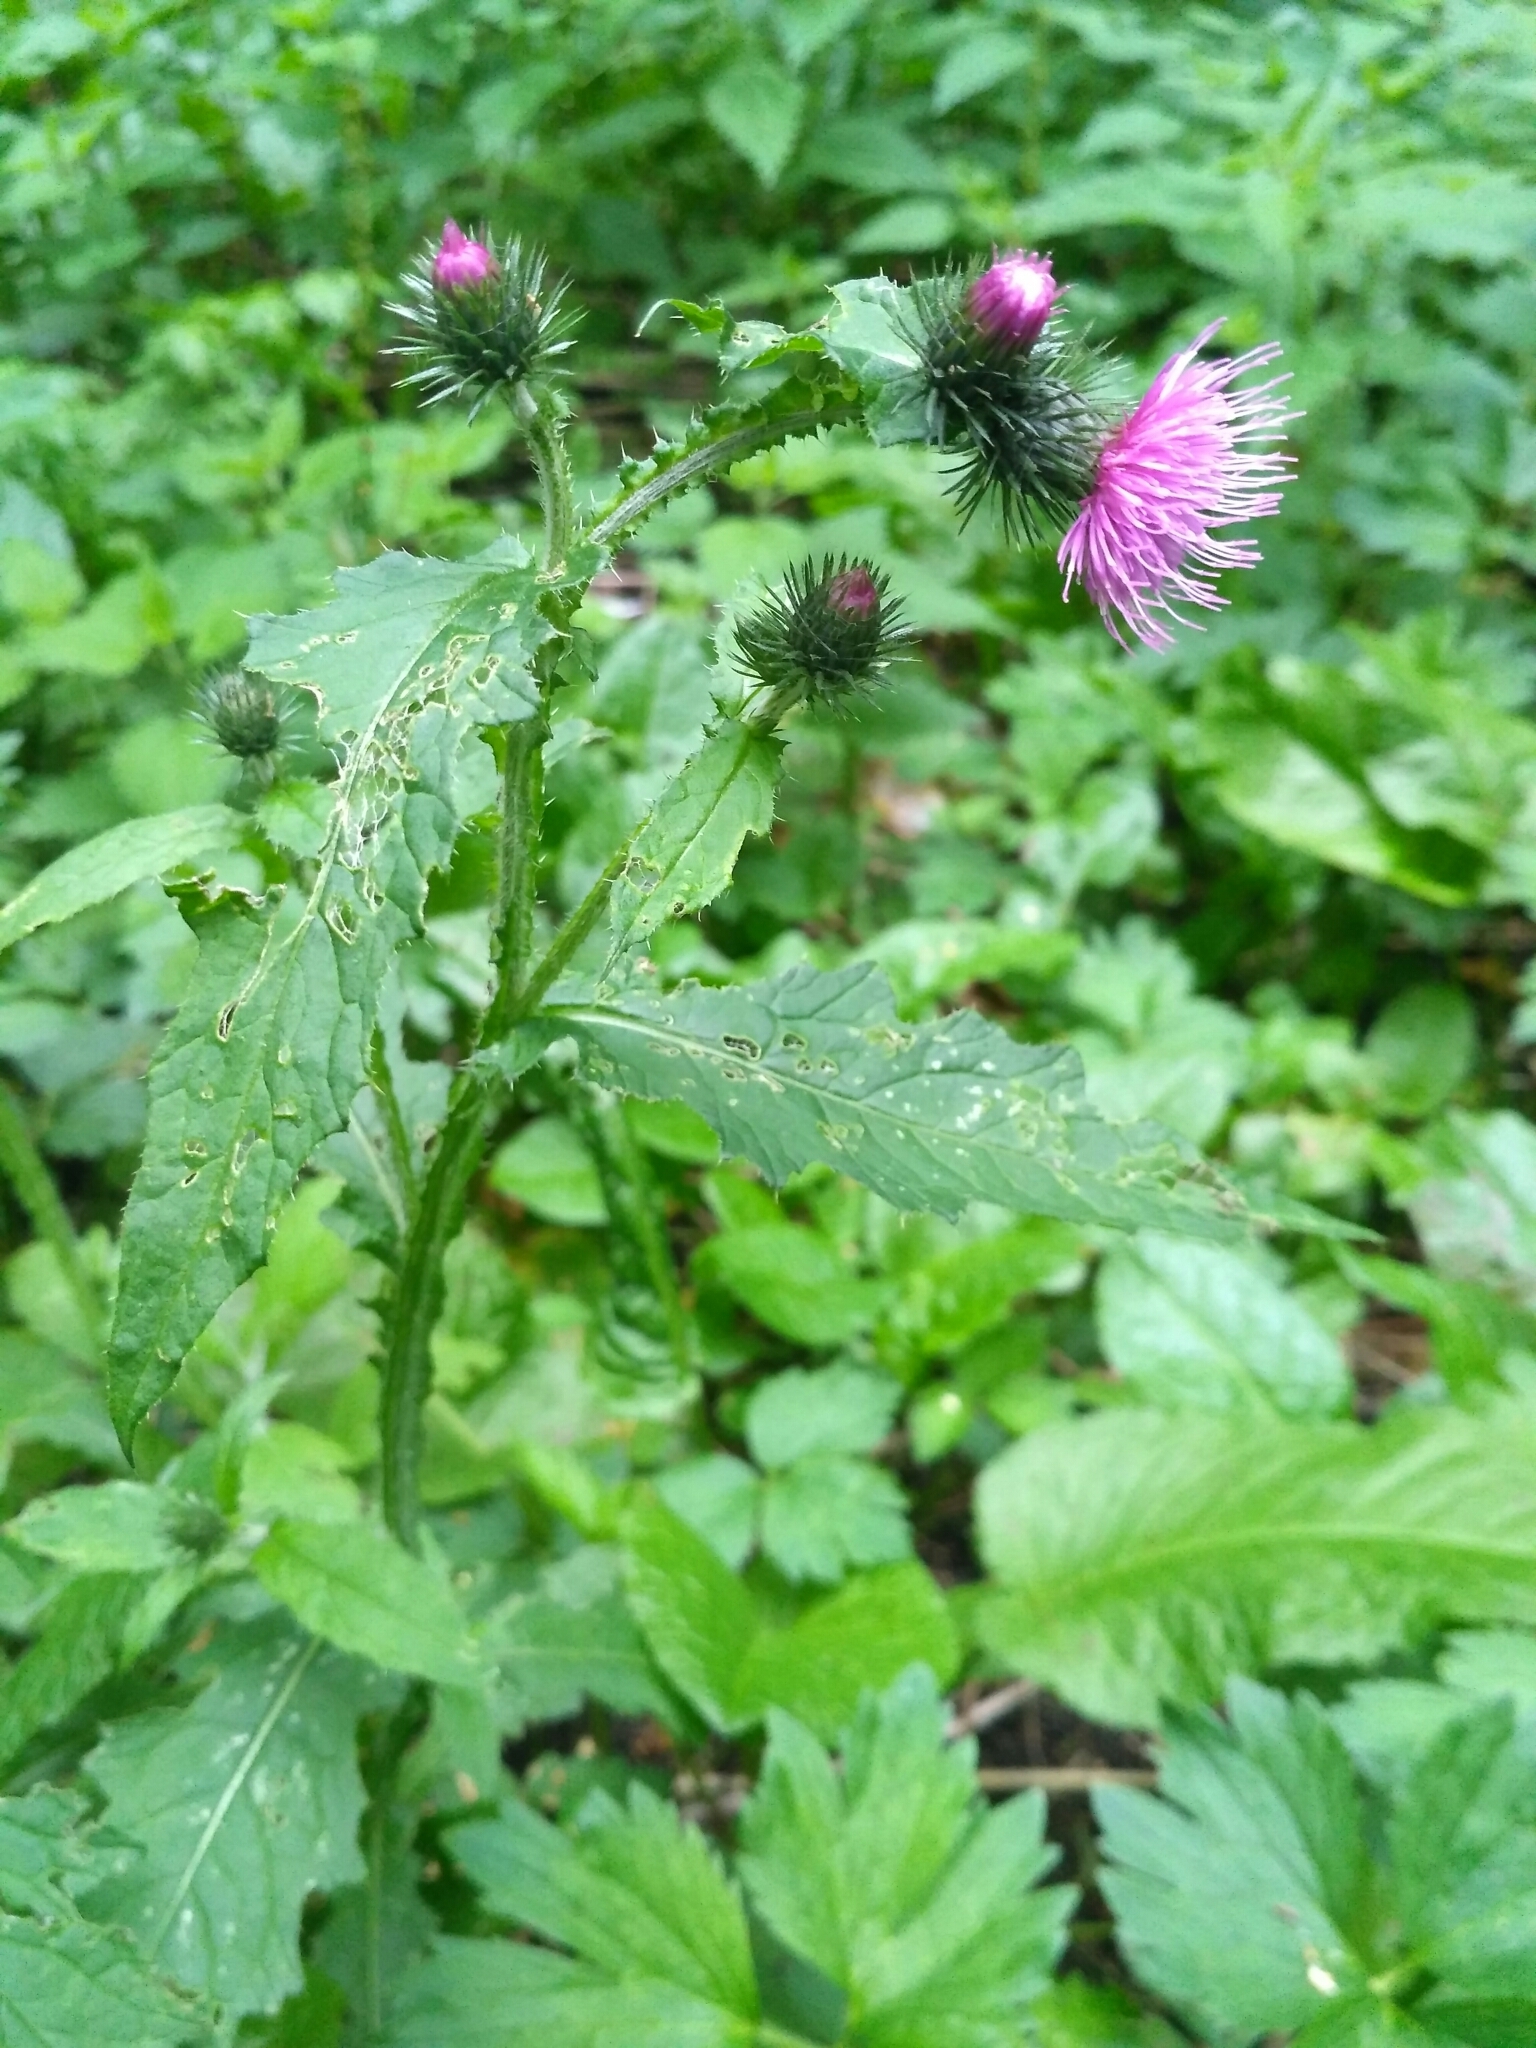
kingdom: Plantae
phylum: Tracheophyta
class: Magnoliopsida
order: Asterales
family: Asteraceae
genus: Carduus
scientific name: Carduus crispus
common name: Welted thistle
